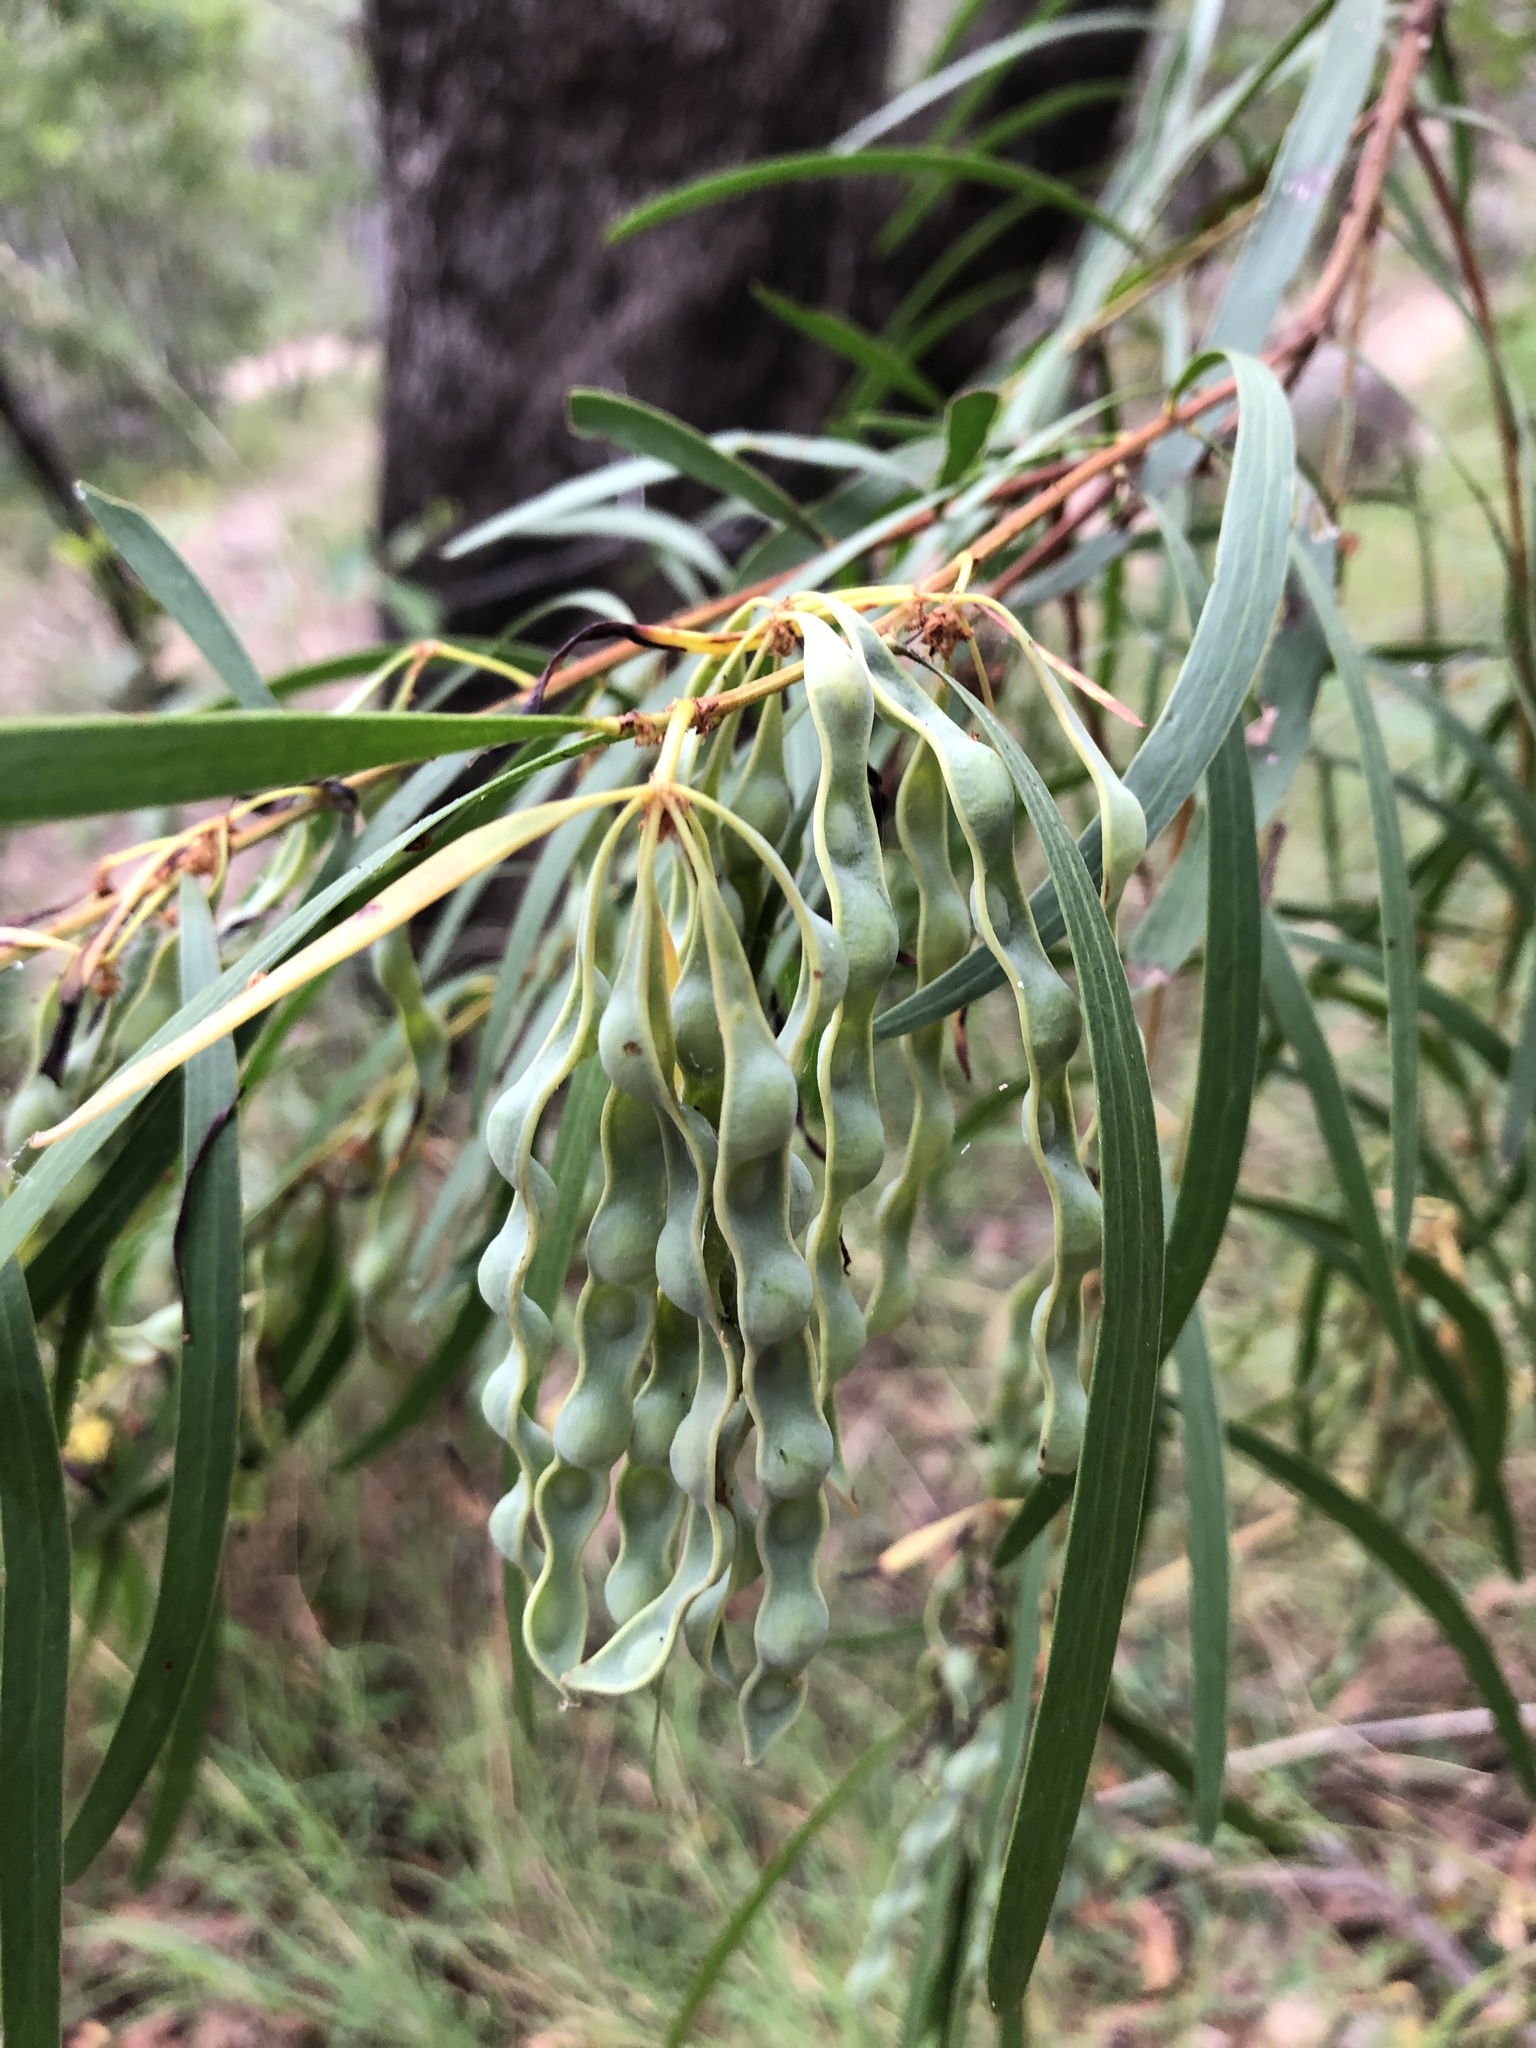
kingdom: Plantae
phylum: Tracheophyta
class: Magnoliopsida
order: Fabales
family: Fabaceae
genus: Acacia
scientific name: Acacia simsii
